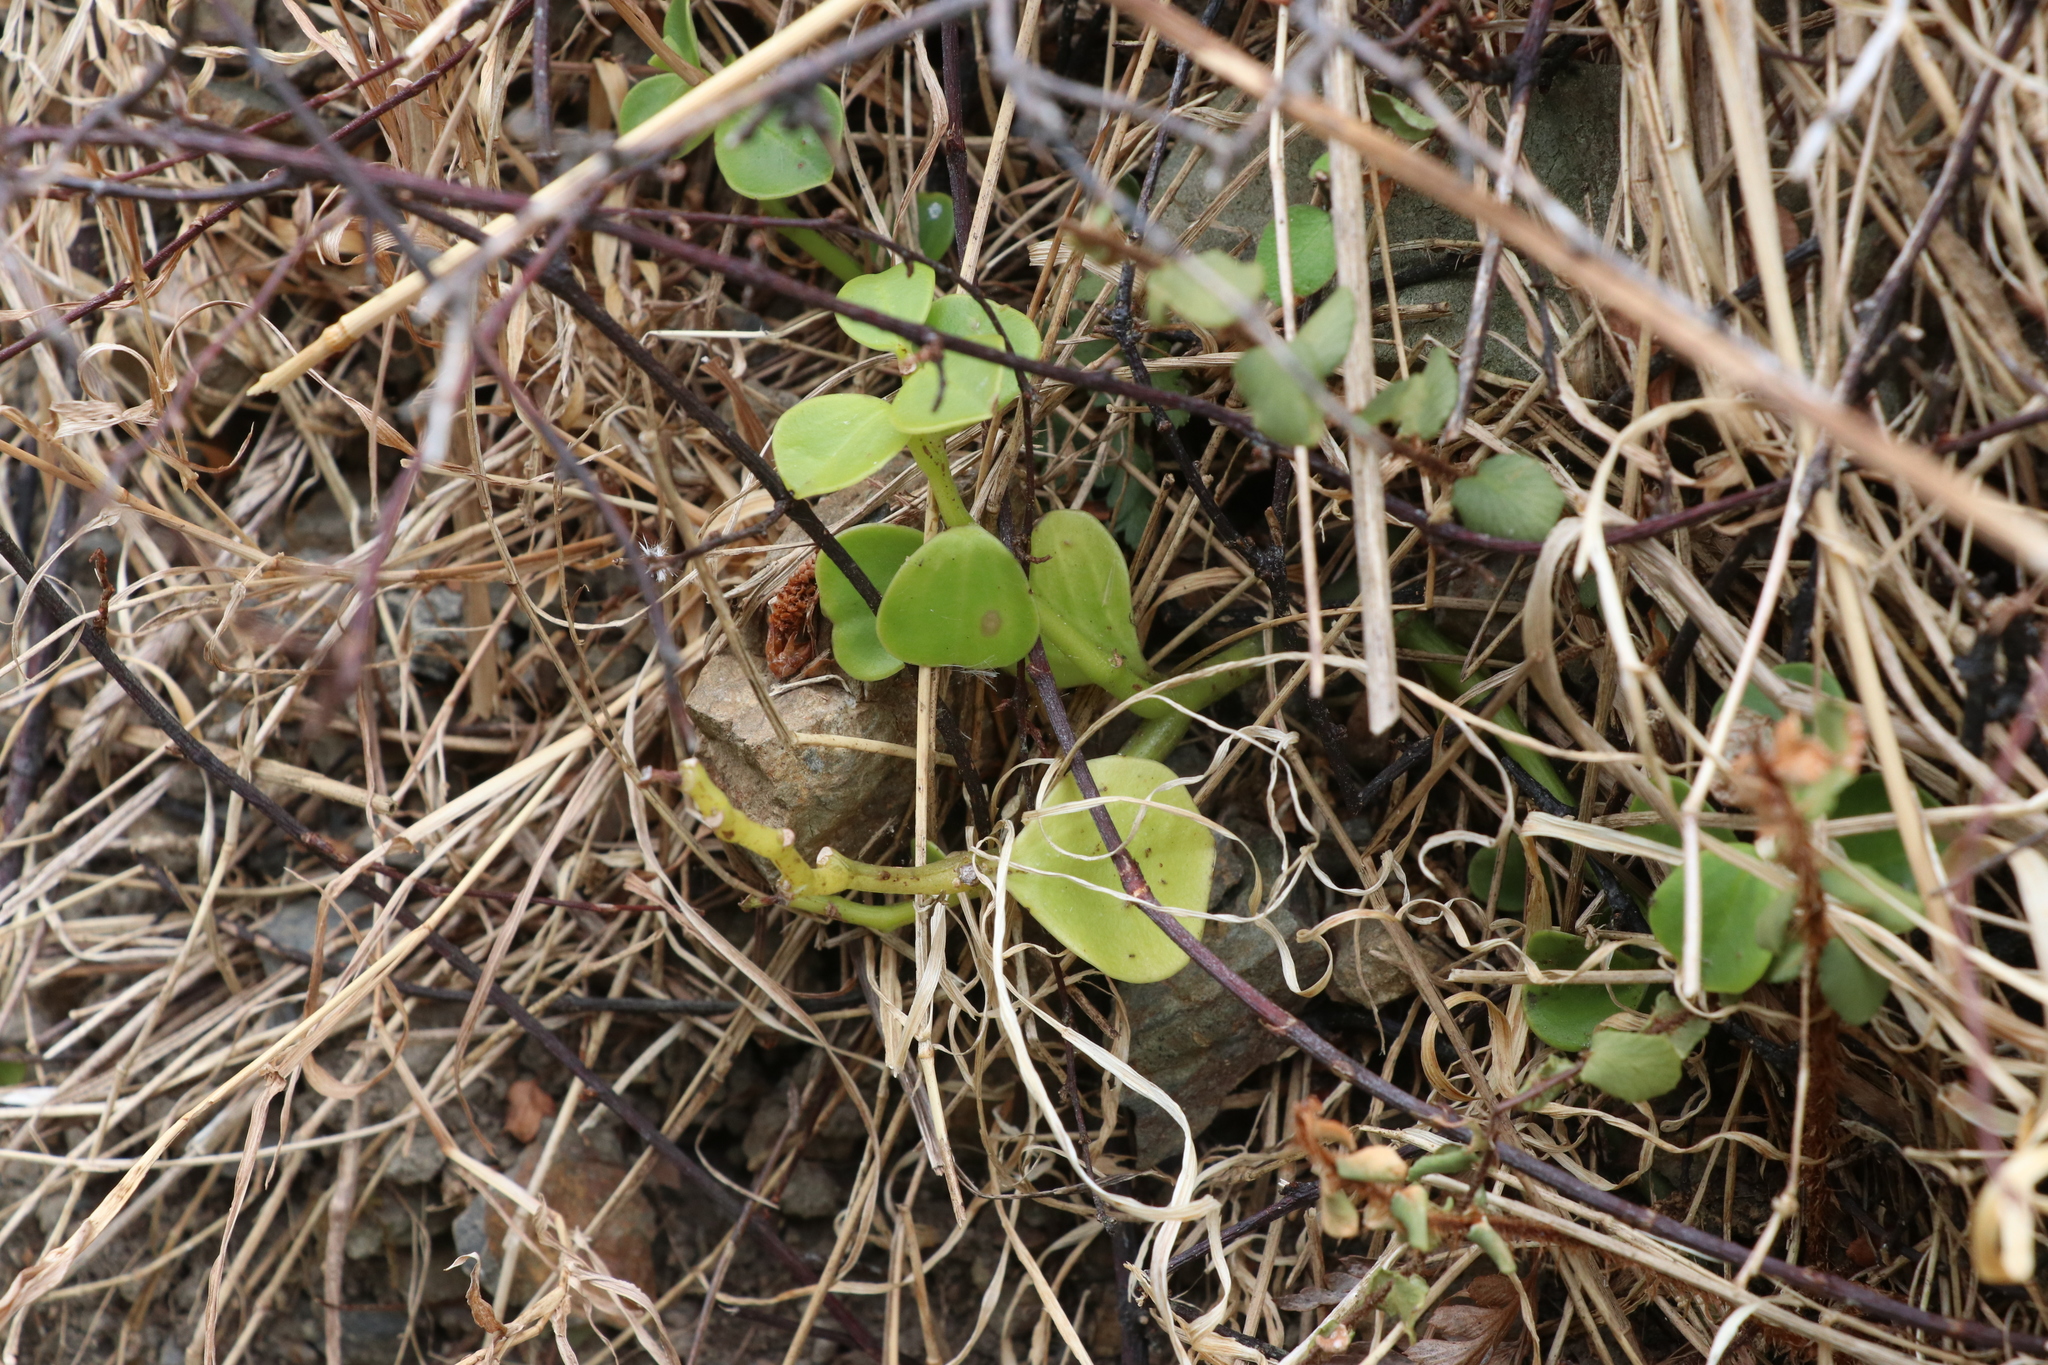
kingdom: Plantae
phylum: Tracheophyta
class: Magnoliopsida
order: Piperales
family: Piperaceae
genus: Peperomia
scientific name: Peperomia urvilleana
